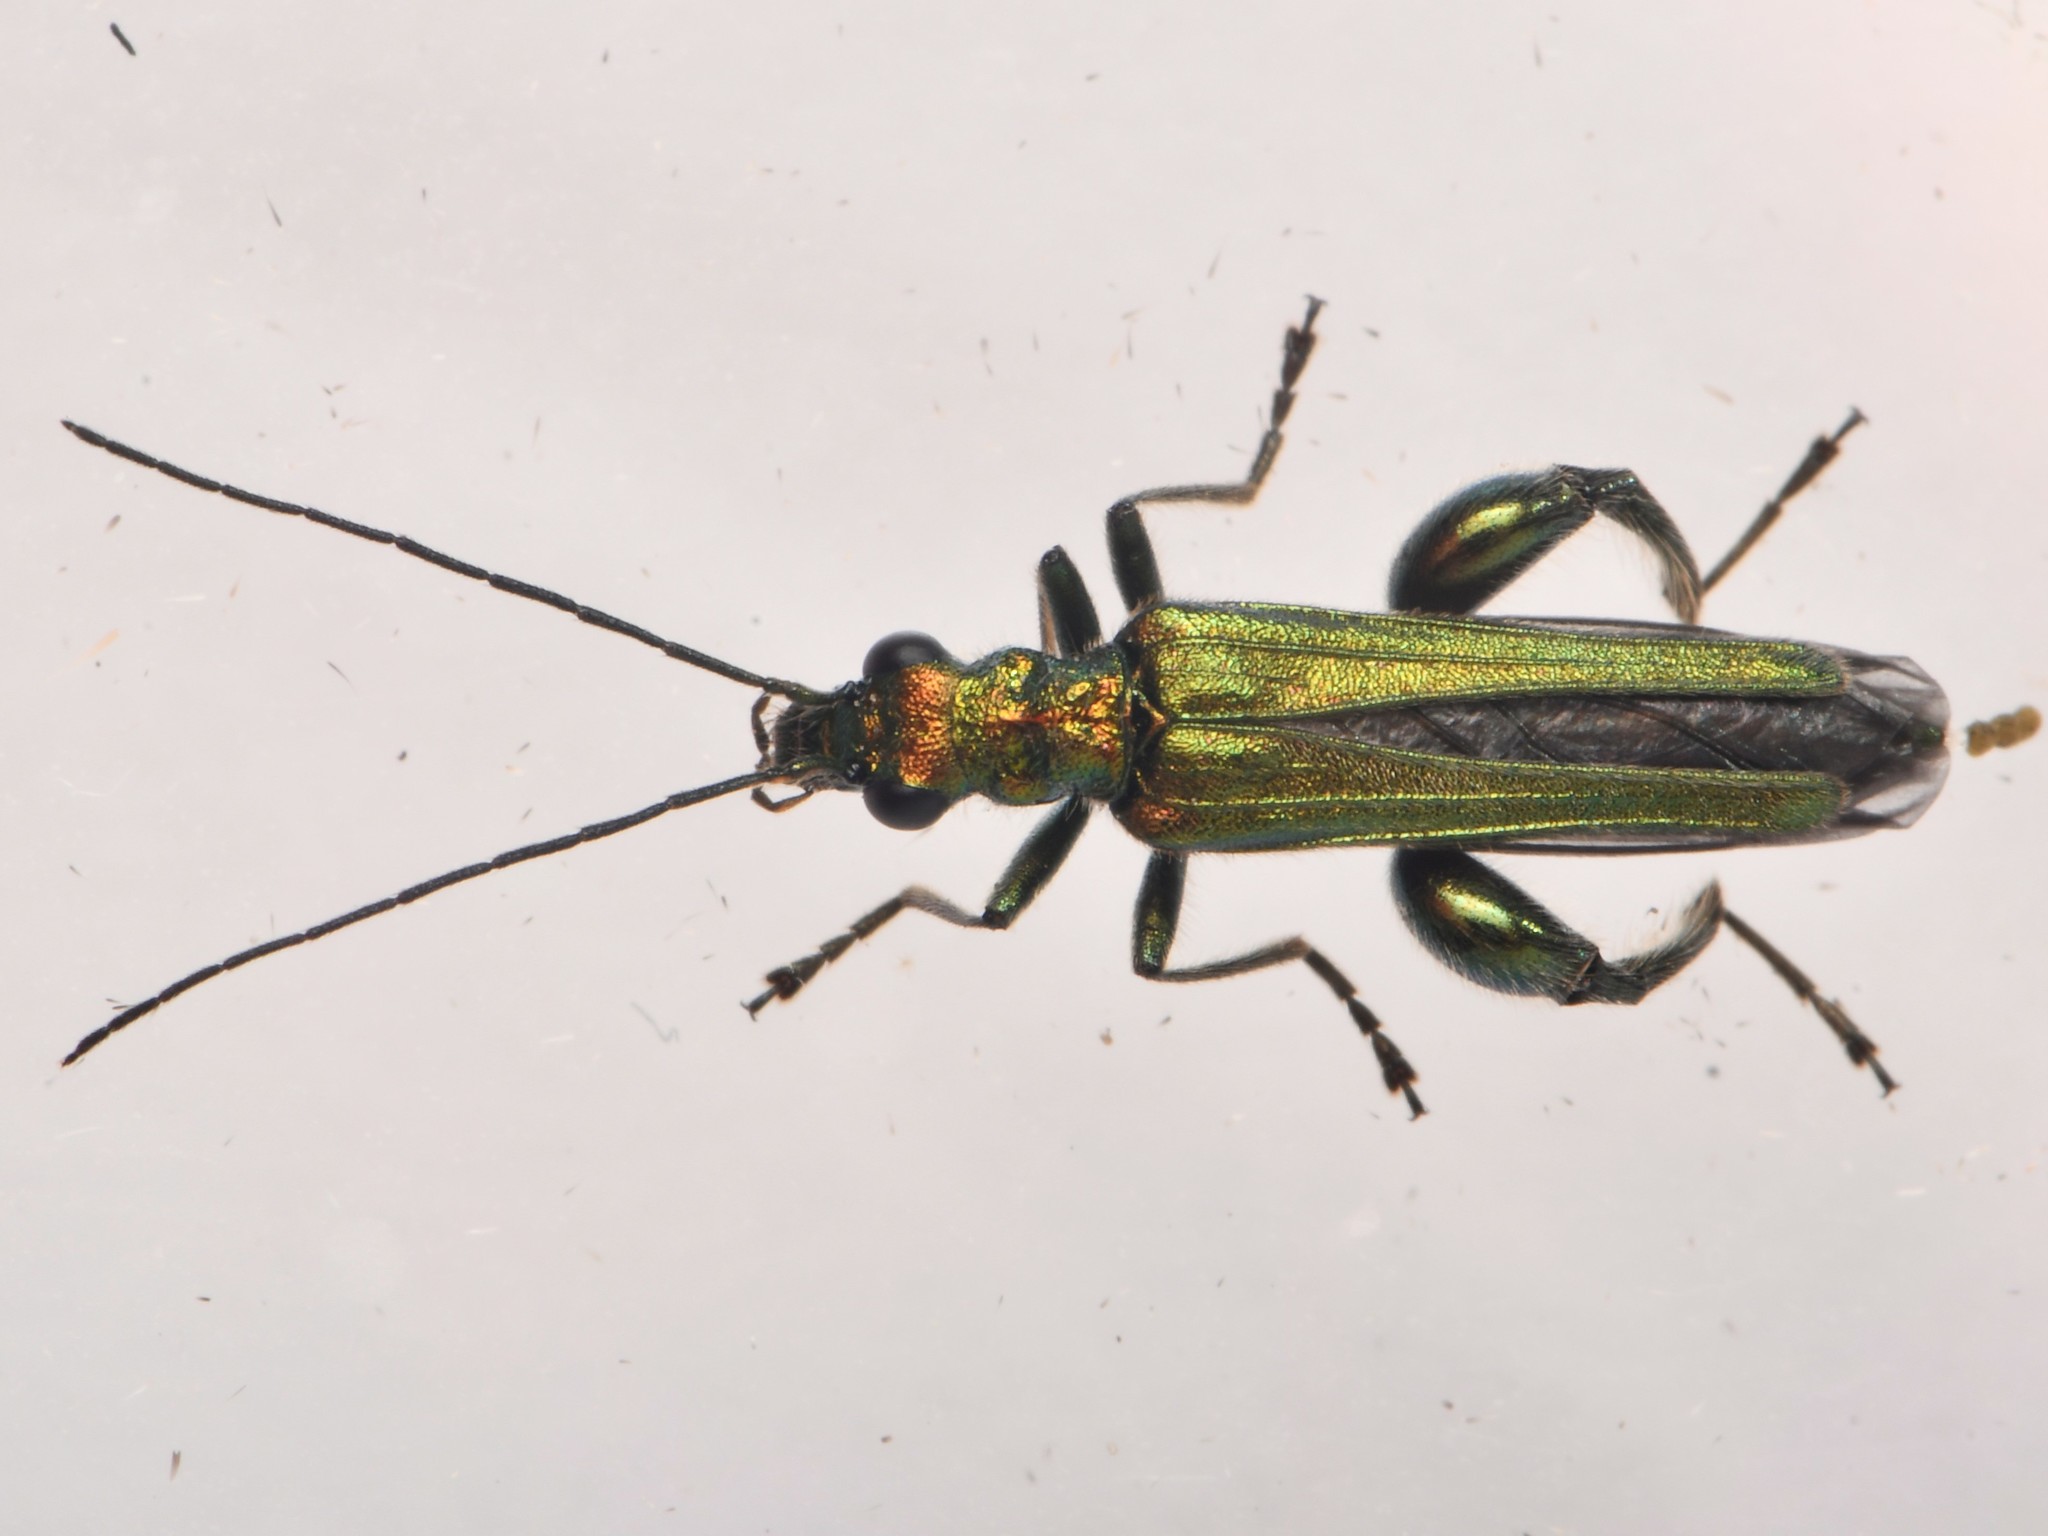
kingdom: Animalia
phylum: Arthropoda
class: Insecta
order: Coleoptera
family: Oedemeridae
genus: Oedemera
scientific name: Oedemera nobilis
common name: Swollen-thighed beetle
